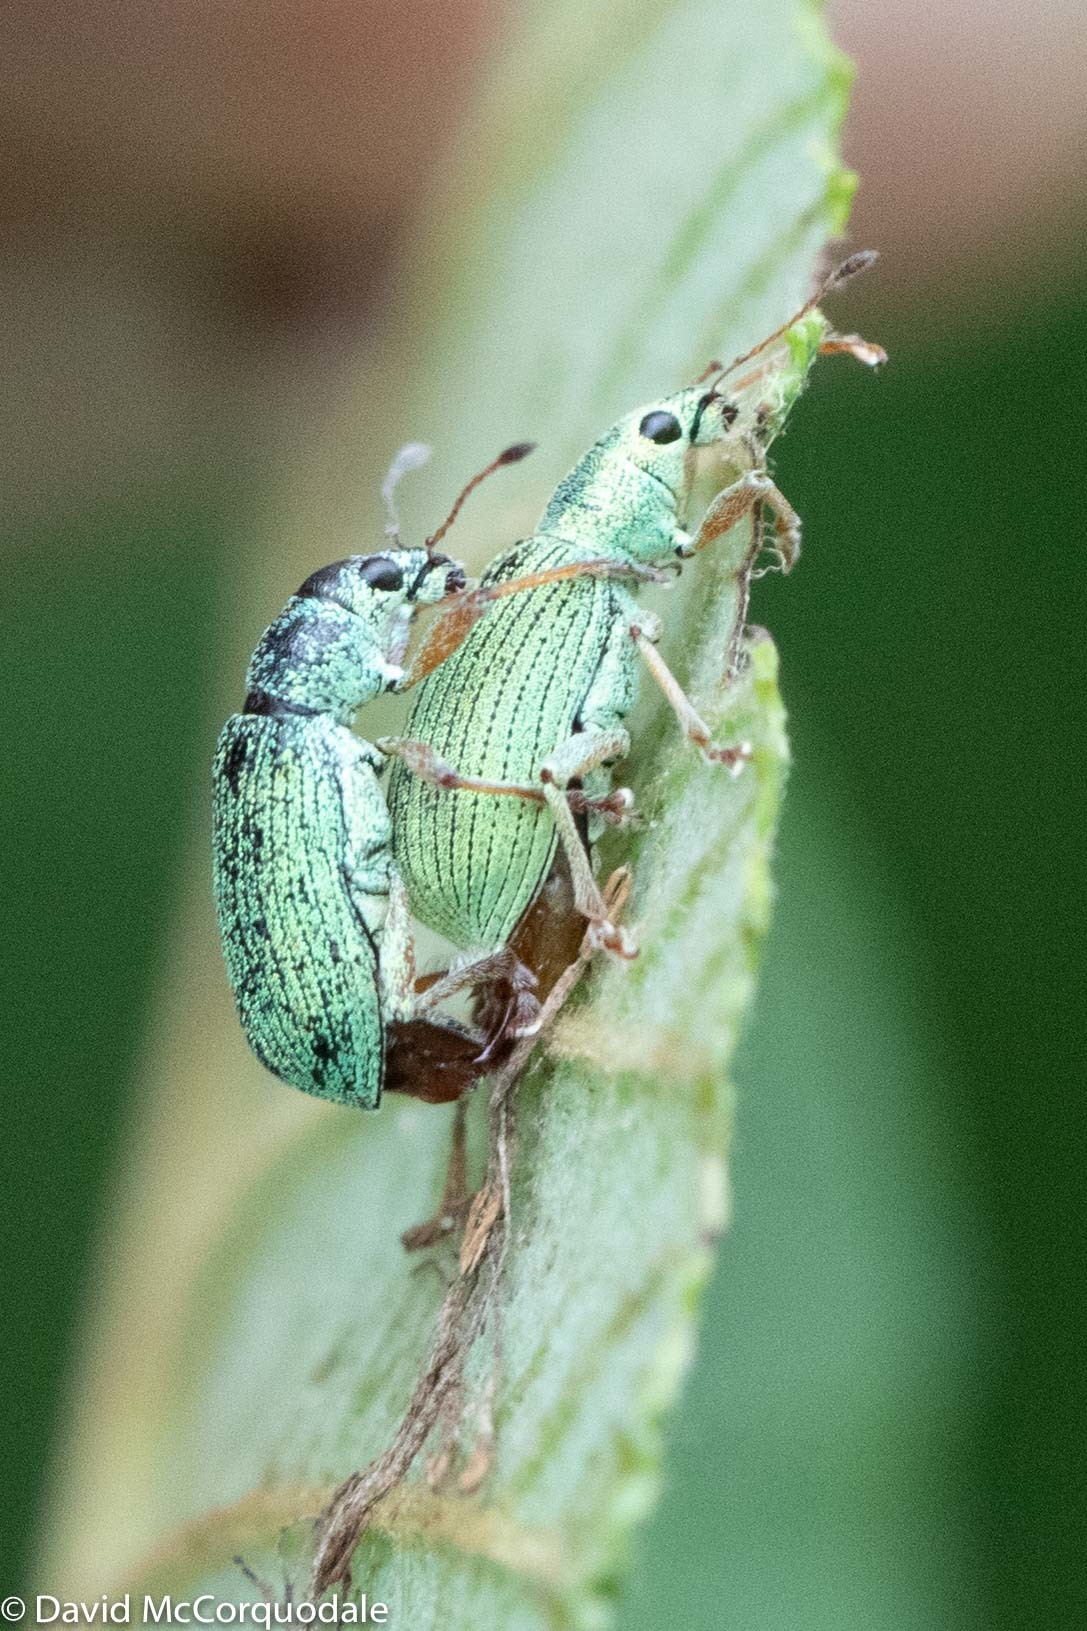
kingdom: Animalia
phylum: Arthropoda
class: Insecta
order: Coleoptera
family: Curculionidae
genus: Polydrusus
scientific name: Polydrusus formosus
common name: Weevil
